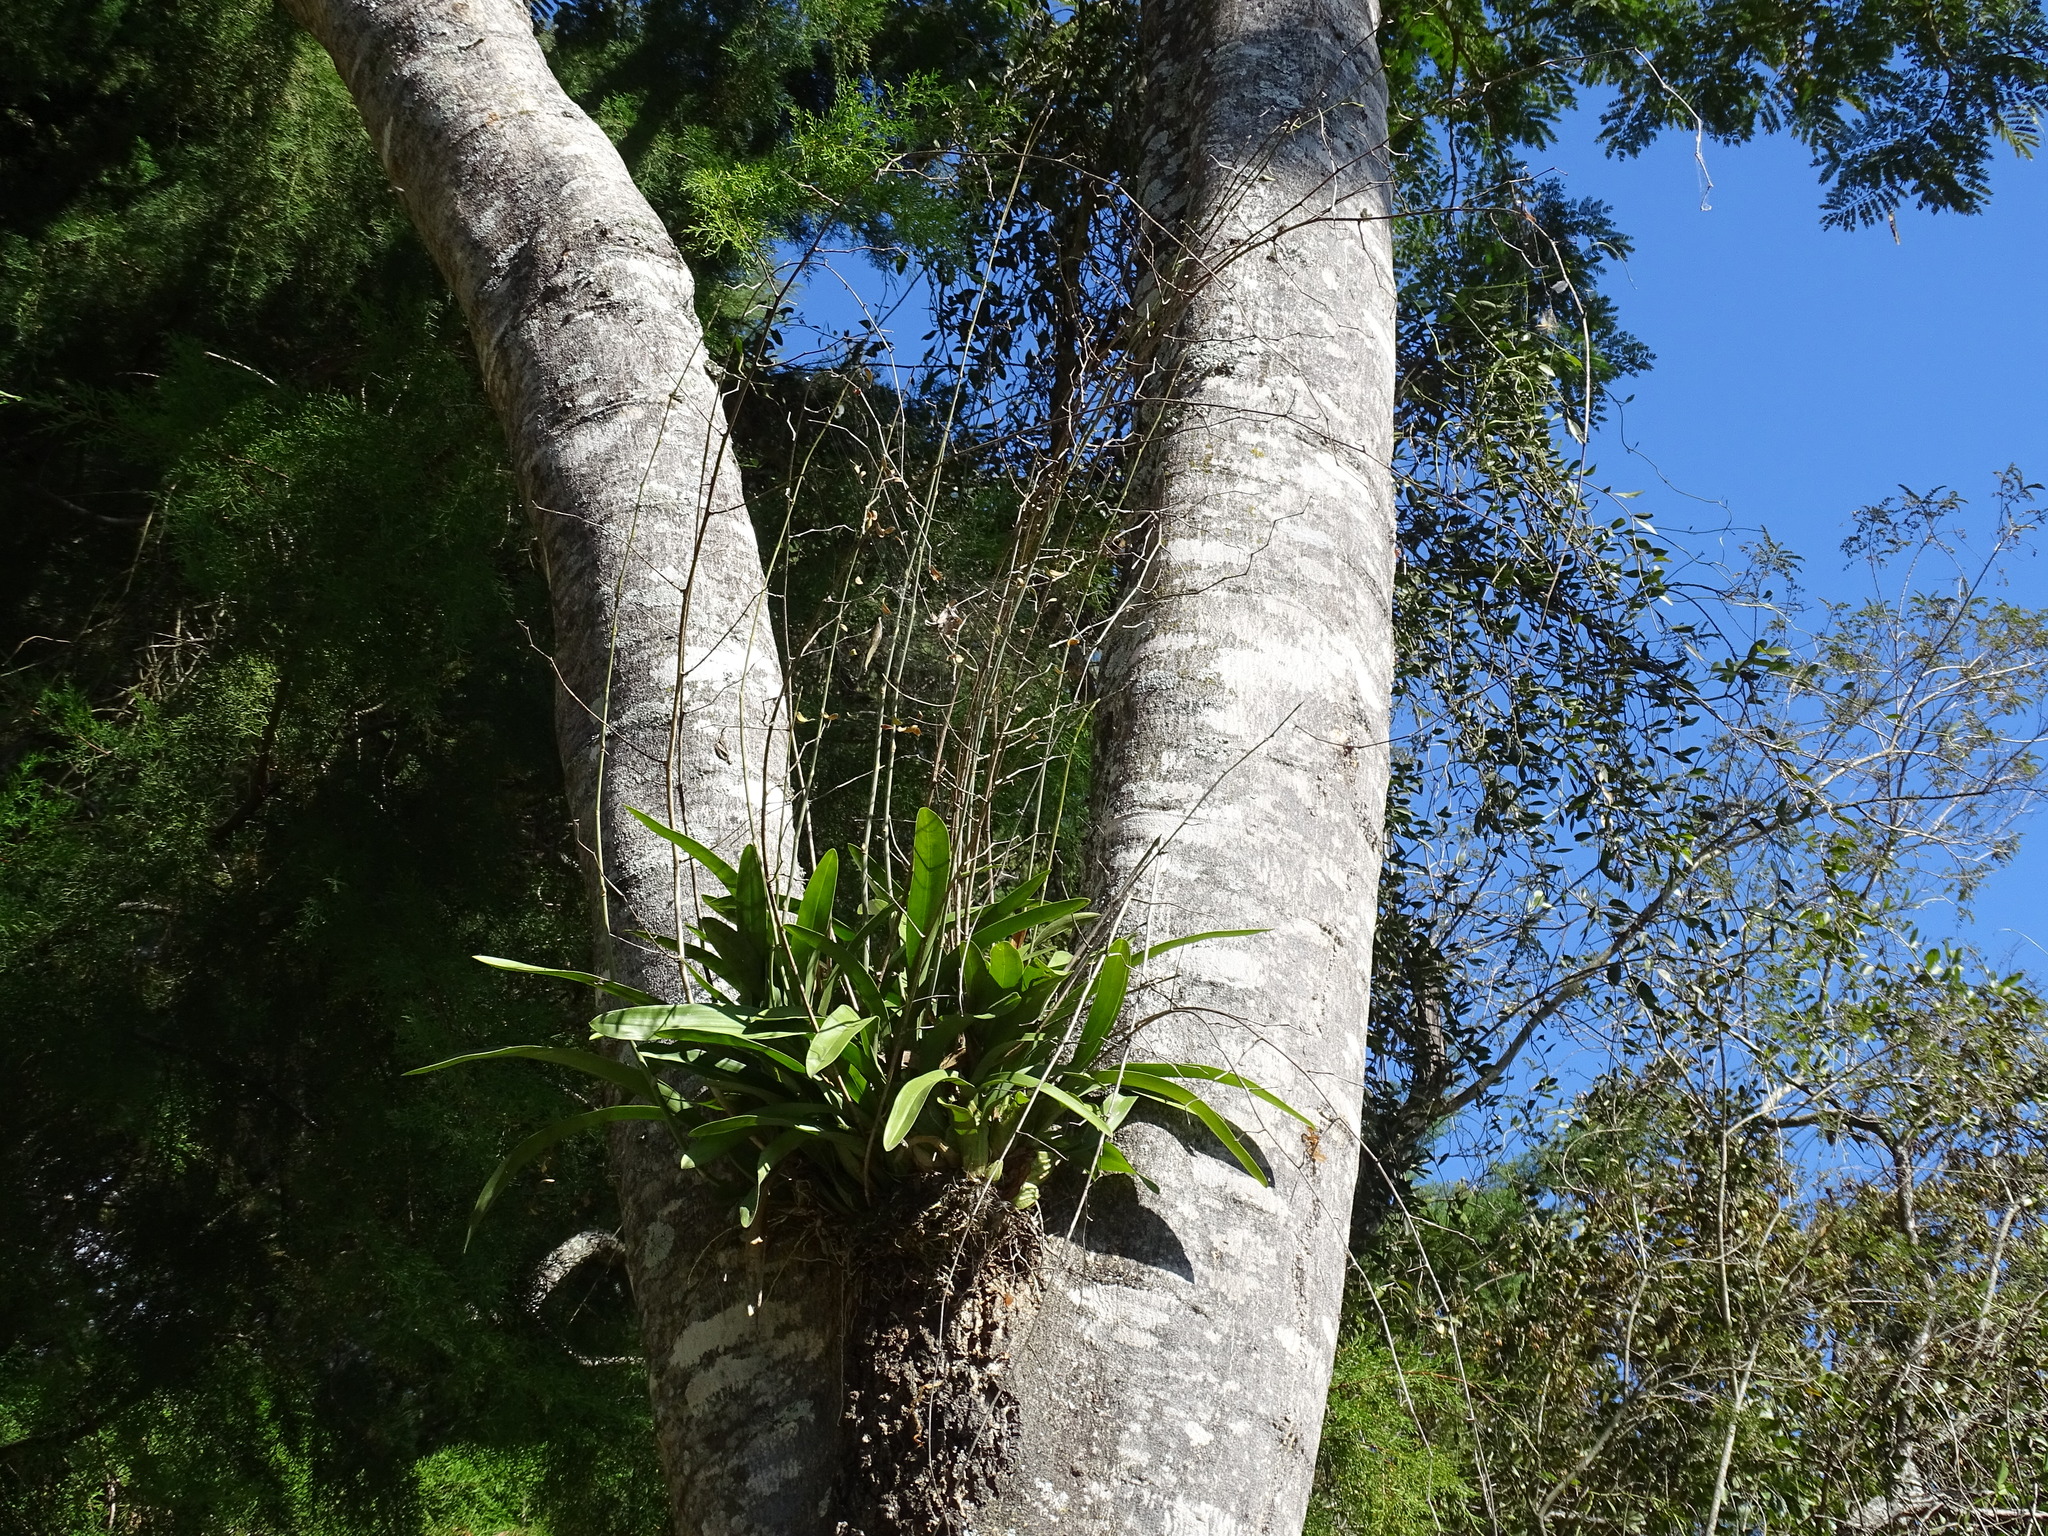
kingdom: Plantae
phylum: Tracheophyta
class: Liliopsida
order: Asparagales
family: Orchidaceae
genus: Oncidium
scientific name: Oncidium leucochilum
